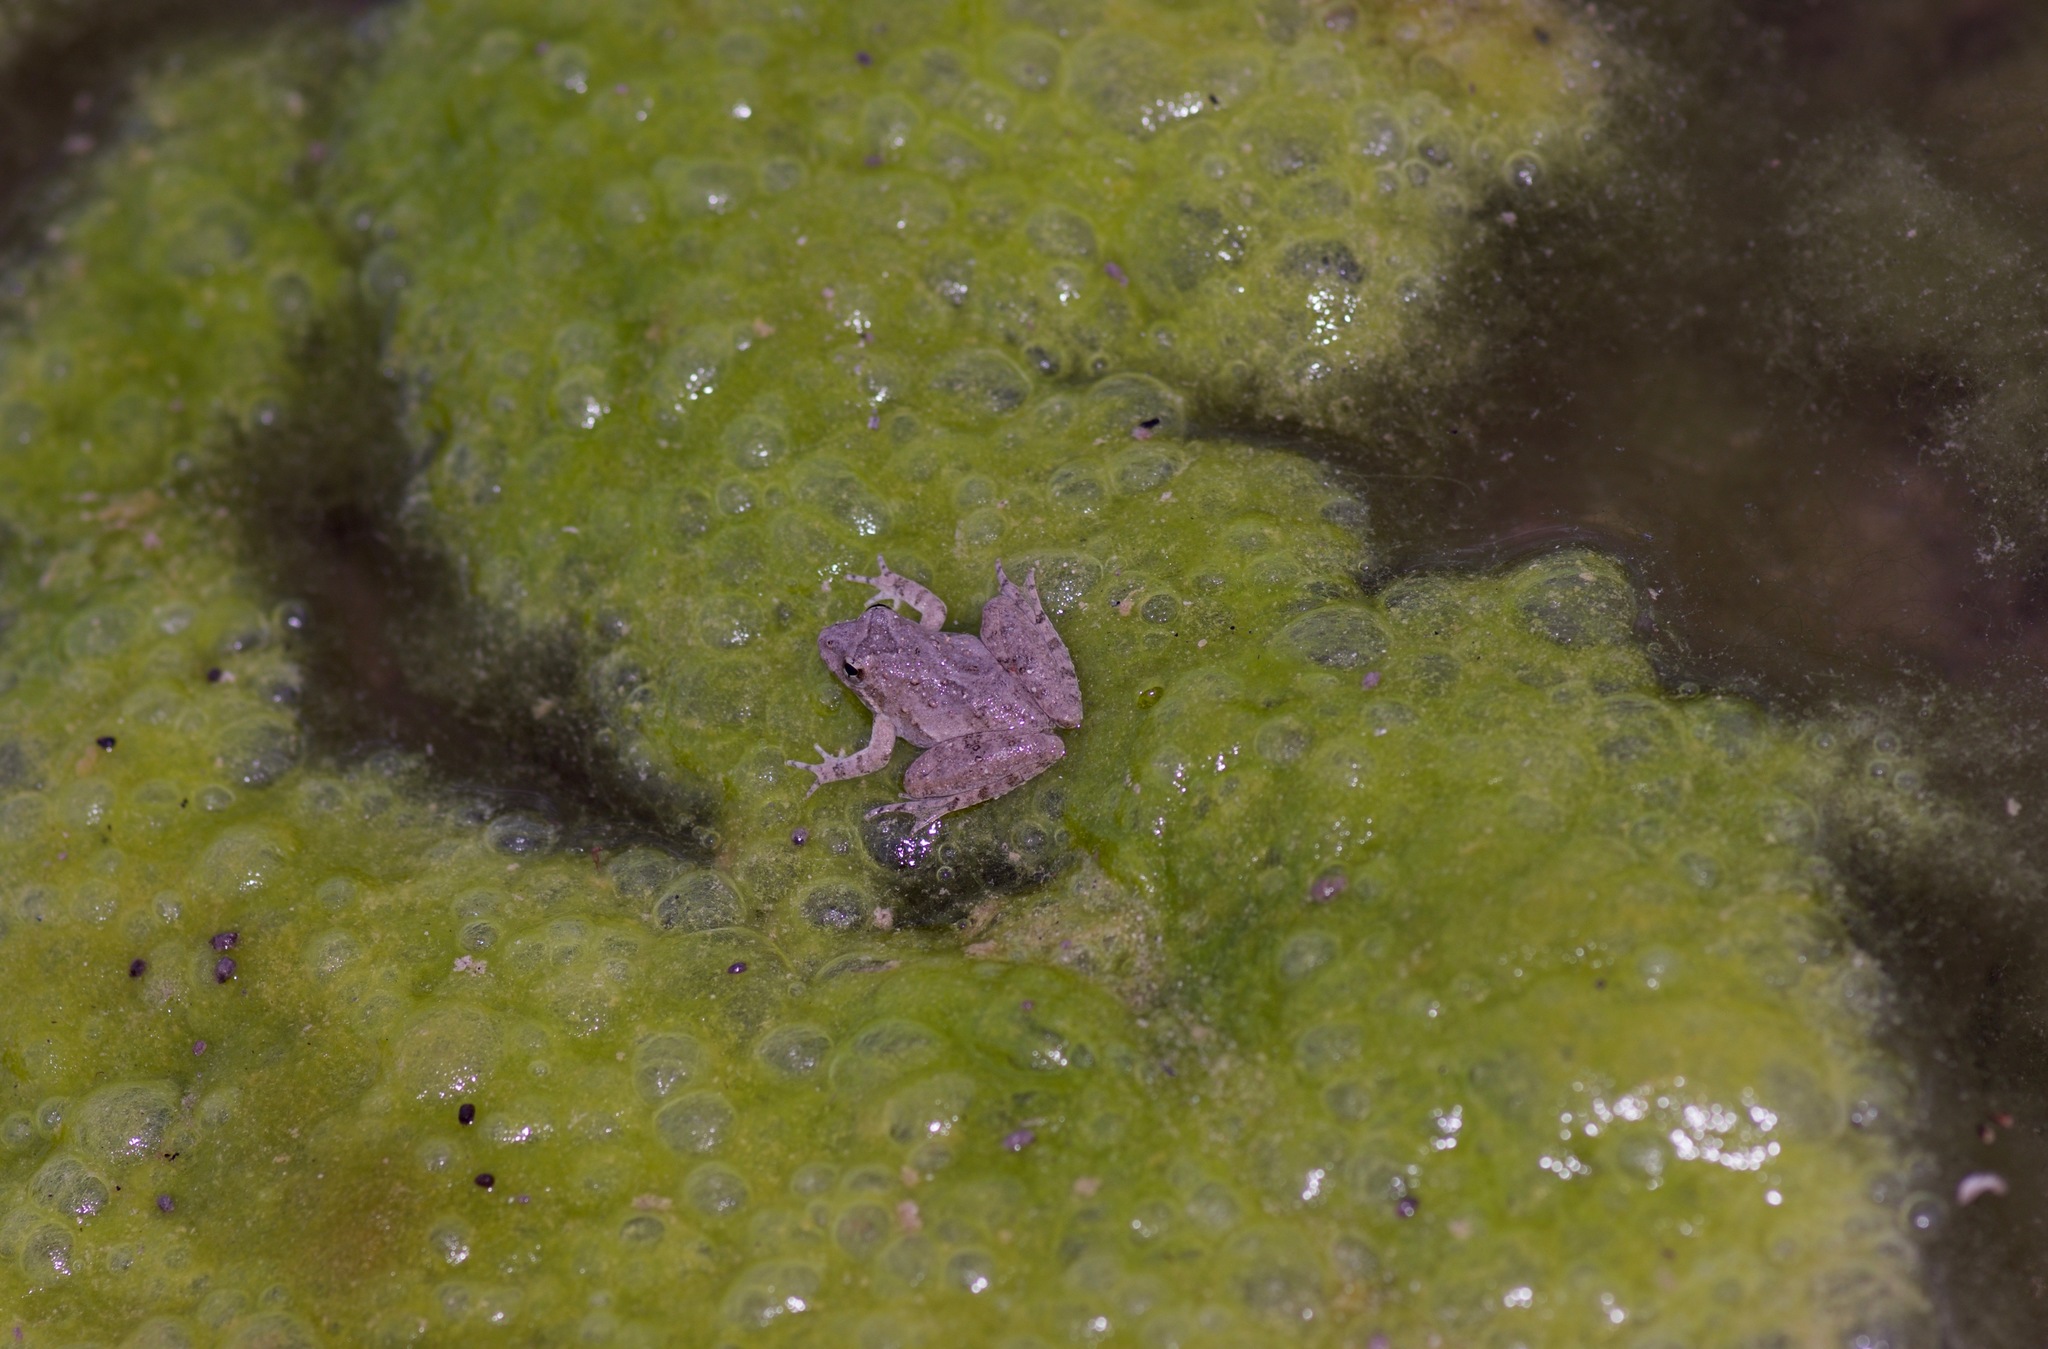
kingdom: Animalia
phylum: Chordata
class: Amphibia
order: Anura
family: Hylidae
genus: Acris
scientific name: Acris blanchardi
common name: Blanchard's cricket frog
